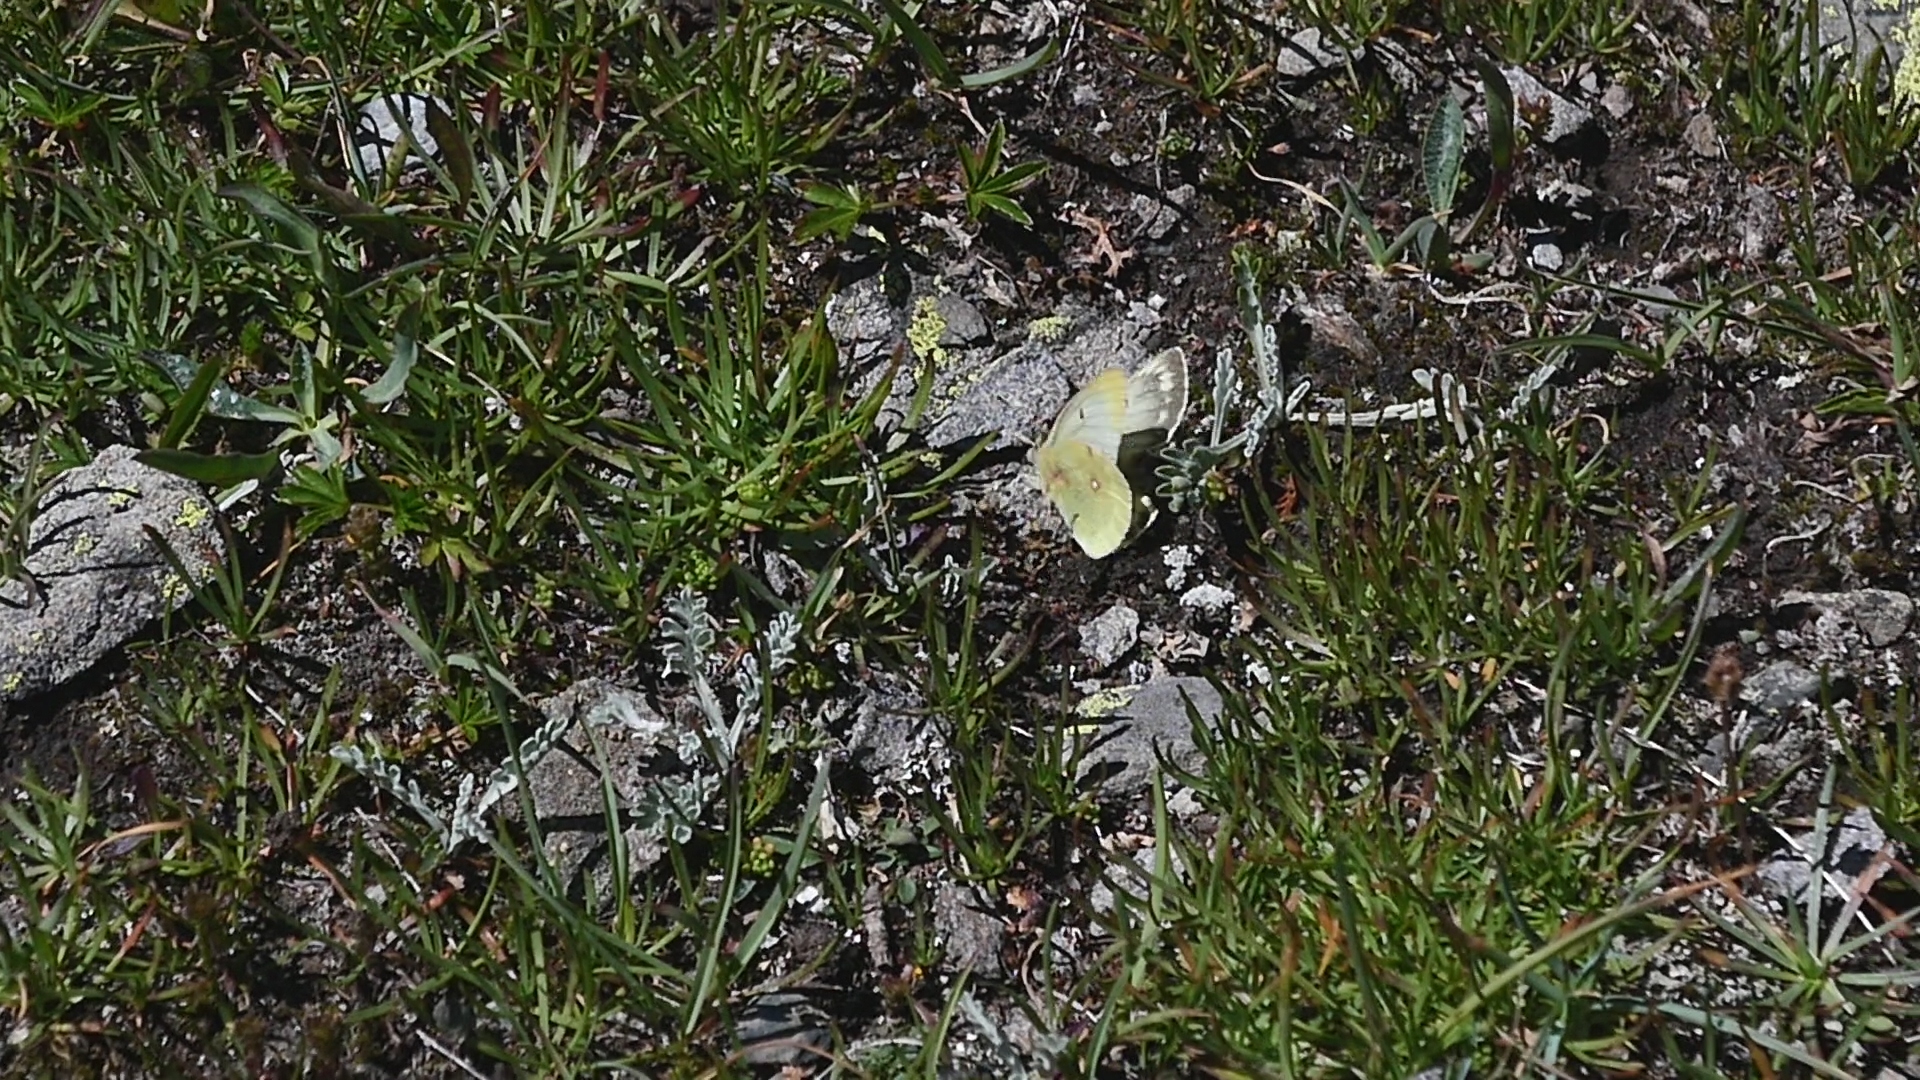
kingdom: Animalia
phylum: Arthropoda
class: Insecta
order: Lepidoptera
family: Pieridae
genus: Colias
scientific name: Colias phicomone
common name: Mountain clouded yellow
